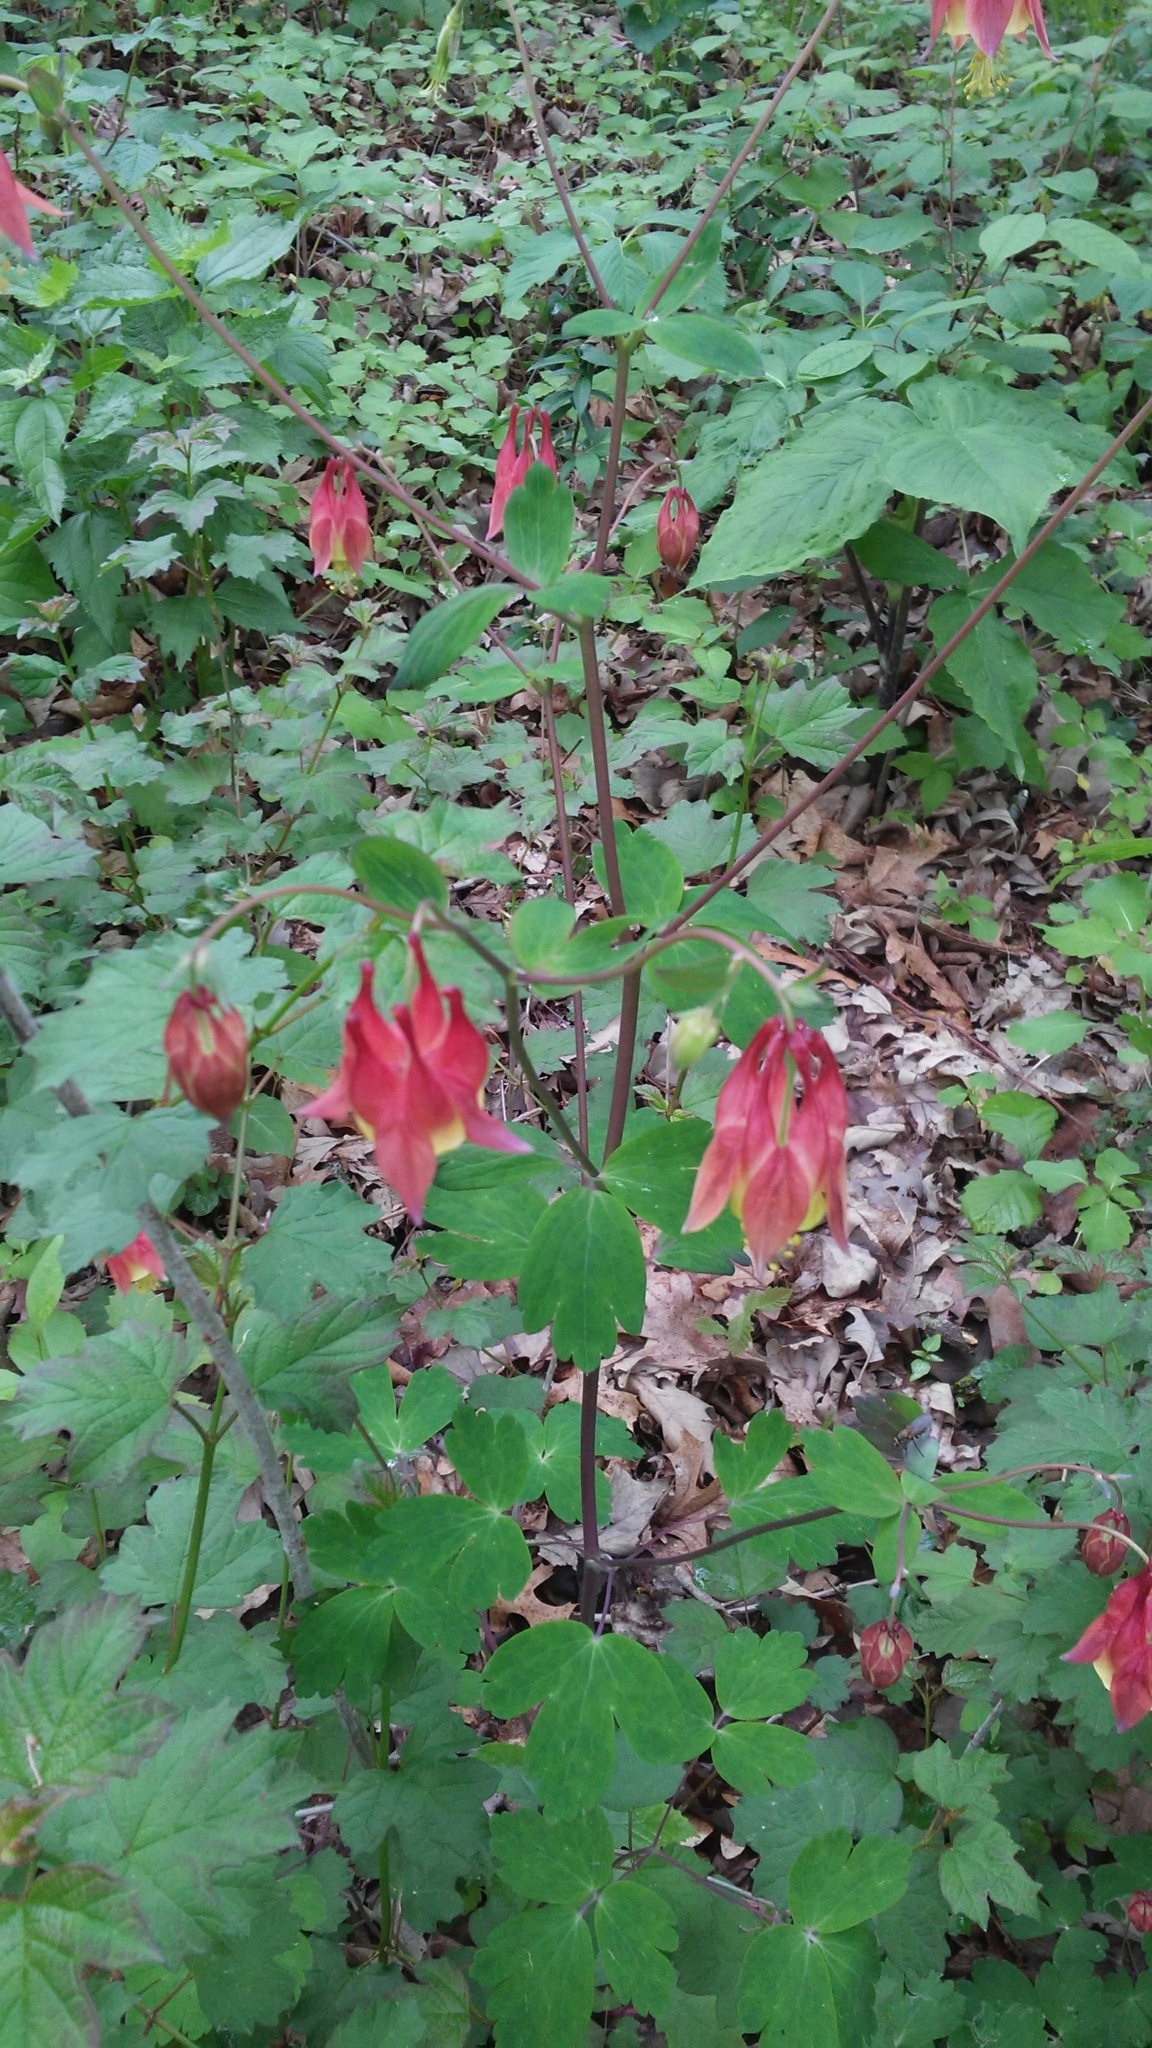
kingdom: Plantae
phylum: Tracheophyta
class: Magnoliopsida
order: Ranunculales
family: Ranunculaceae
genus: Aquilegia
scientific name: Aquilegia canadensis
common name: American columbine
